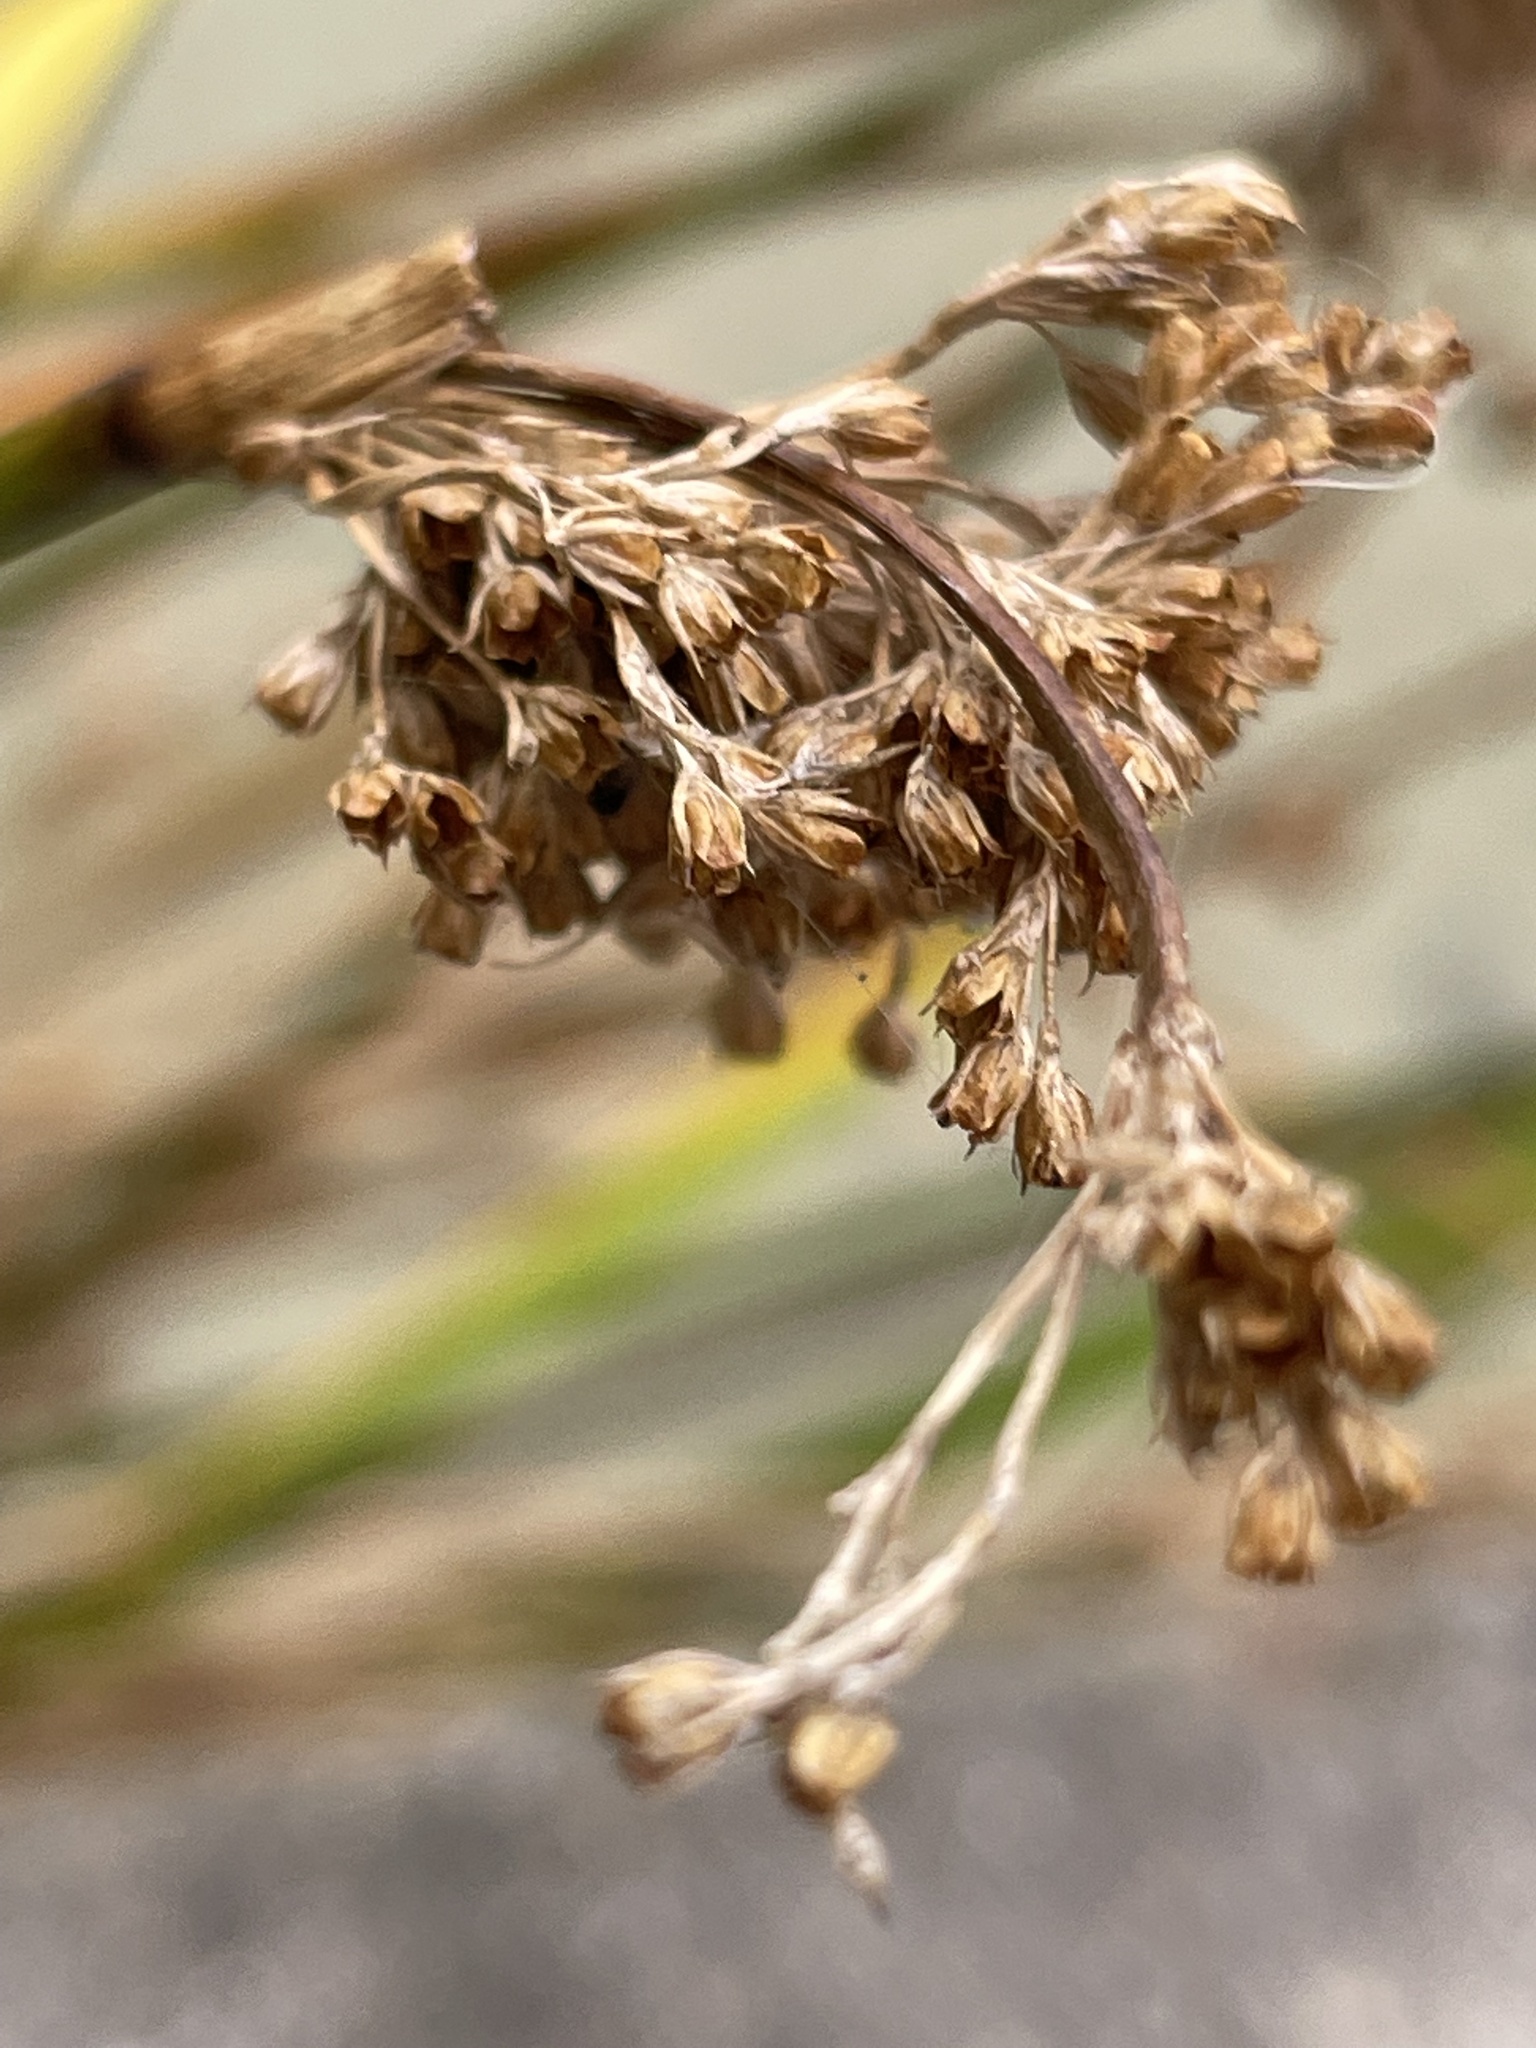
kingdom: Plantae
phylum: Tracheophyta
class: Liliopsida
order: Poales
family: Juncaceae
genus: Juncus
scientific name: Juncus effusus
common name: Soft rush
